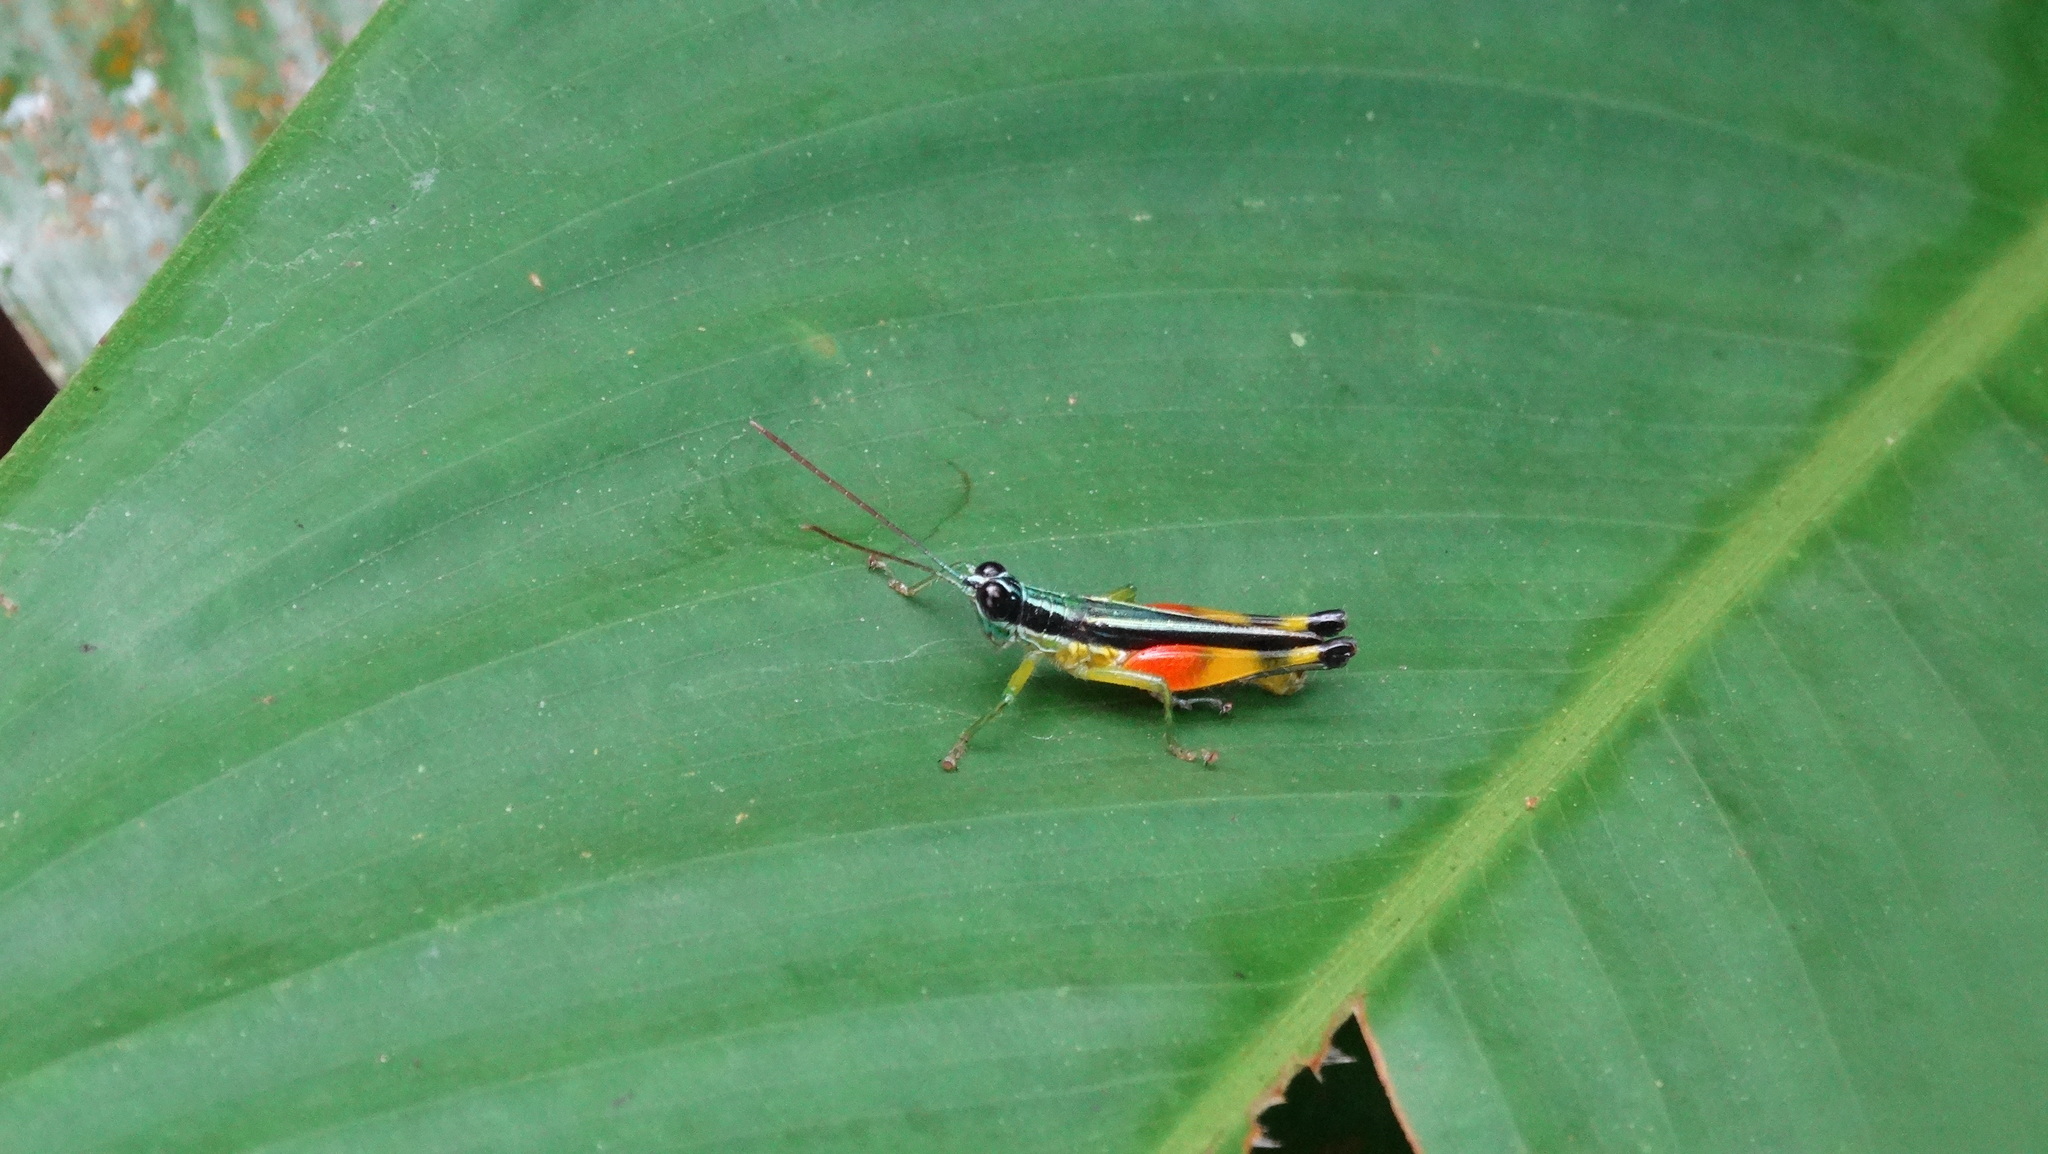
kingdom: Animalia
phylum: Arthropoda
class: Insecta
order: Orthoptera
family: Acrididae
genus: Stenopola
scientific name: Stenopola boliviana
